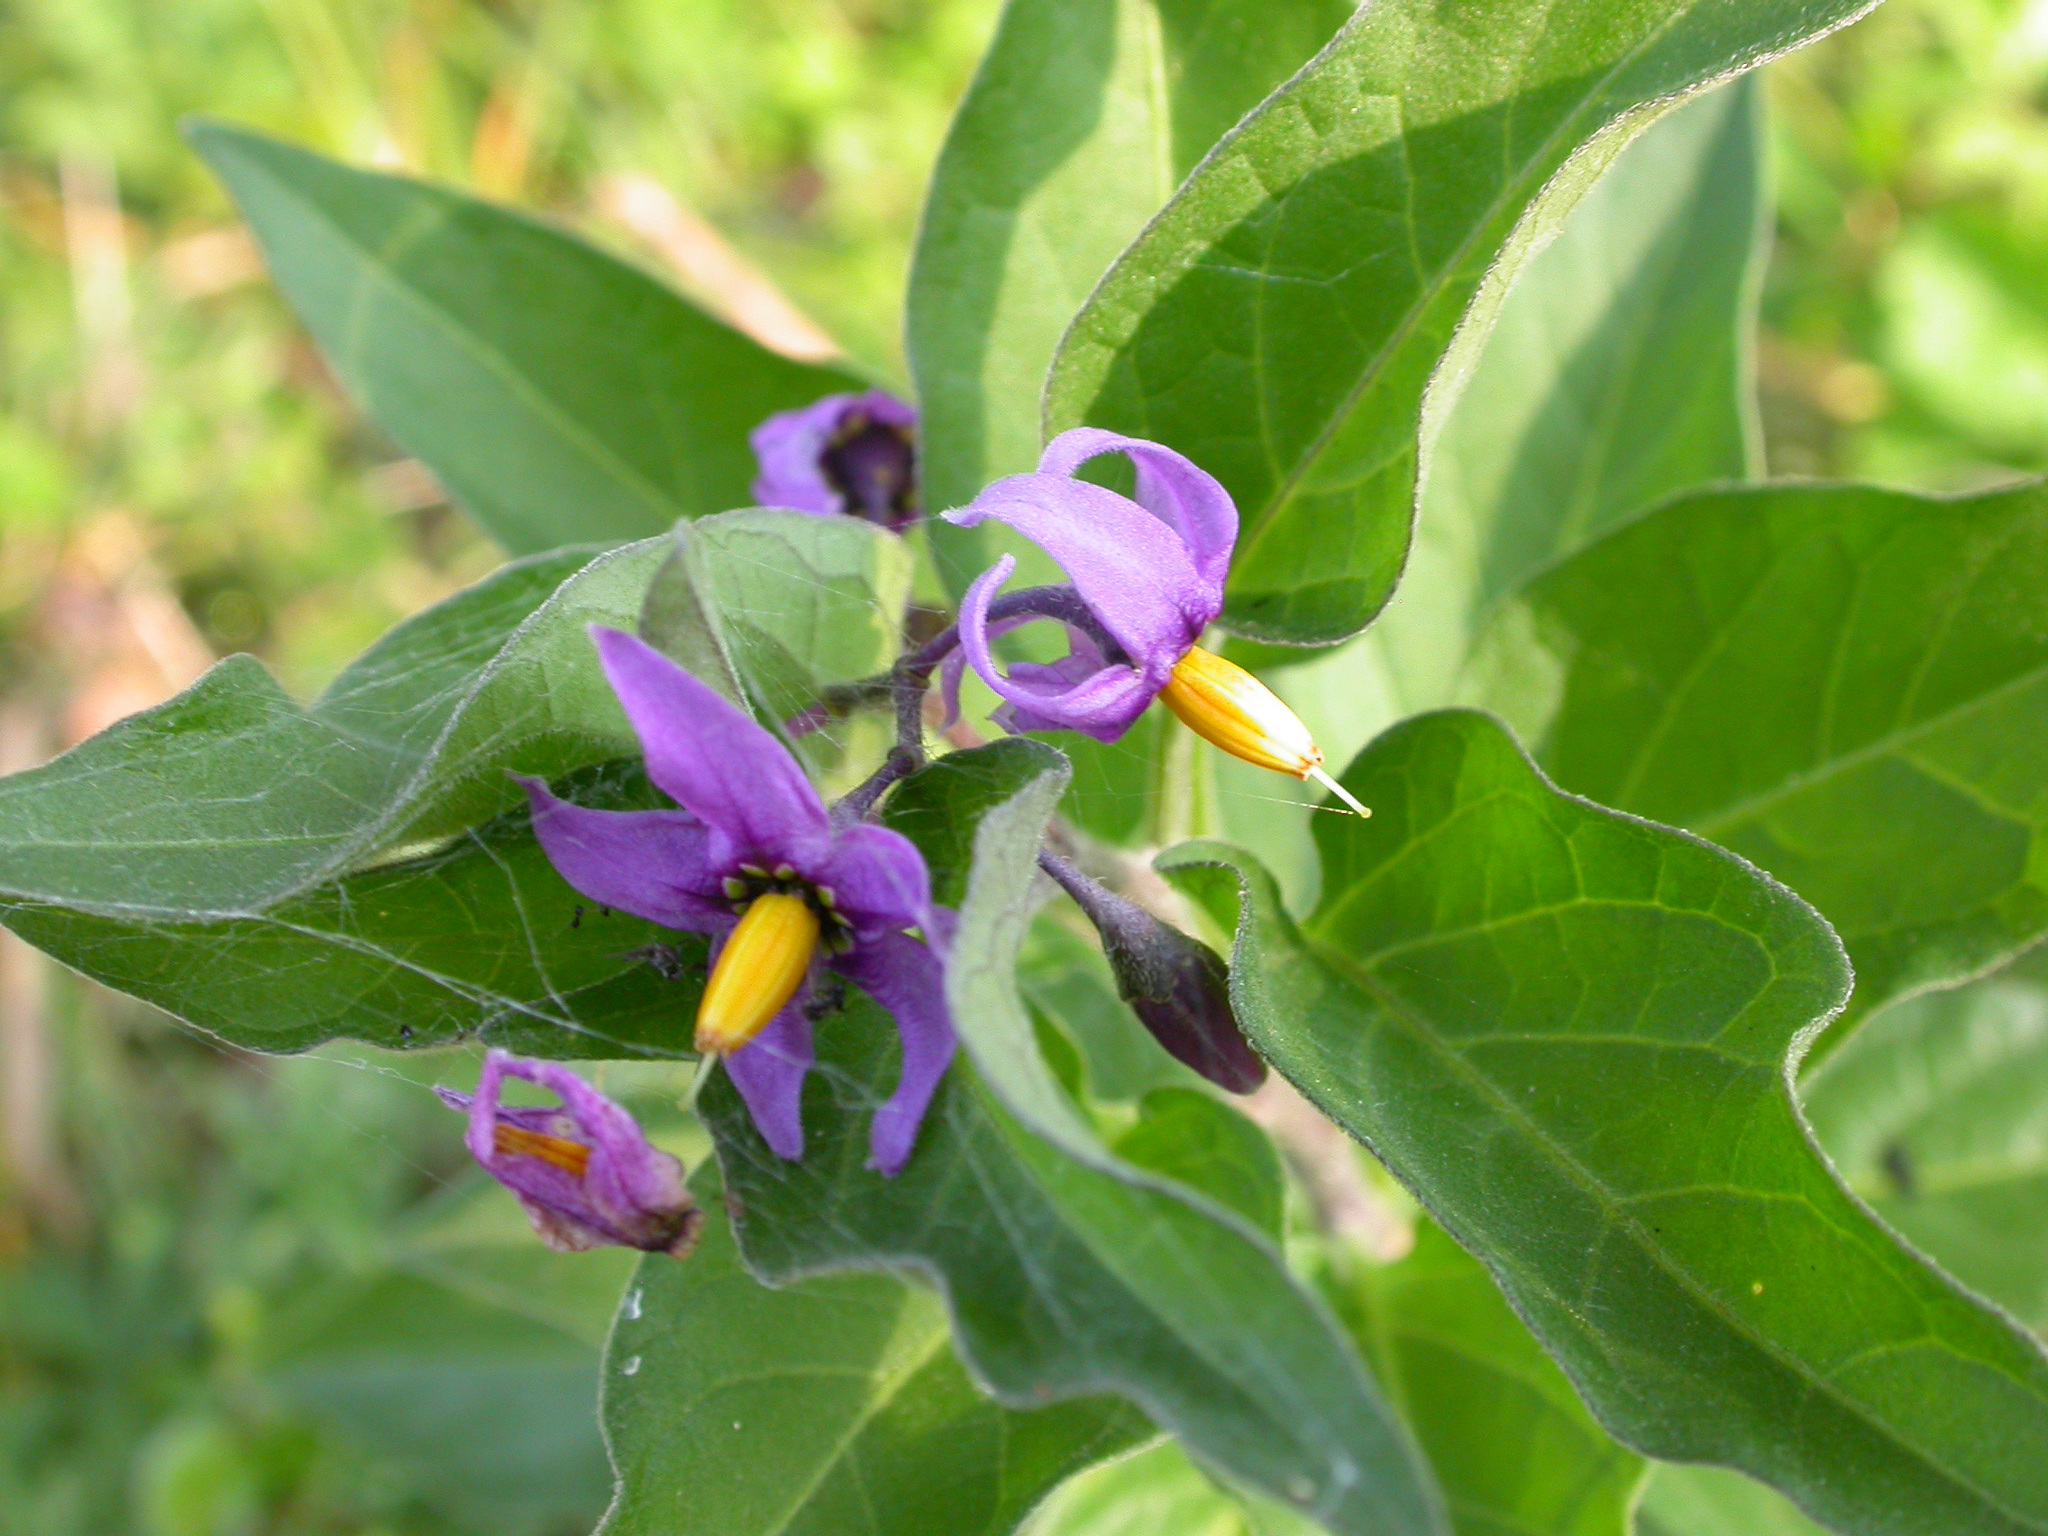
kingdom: Plantae
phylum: Tracheophyta
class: Magnoliopsida
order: Solanales
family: Solanaceae
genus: Solanum
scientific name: Solanum dulcamara
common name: Climbing nightshade
